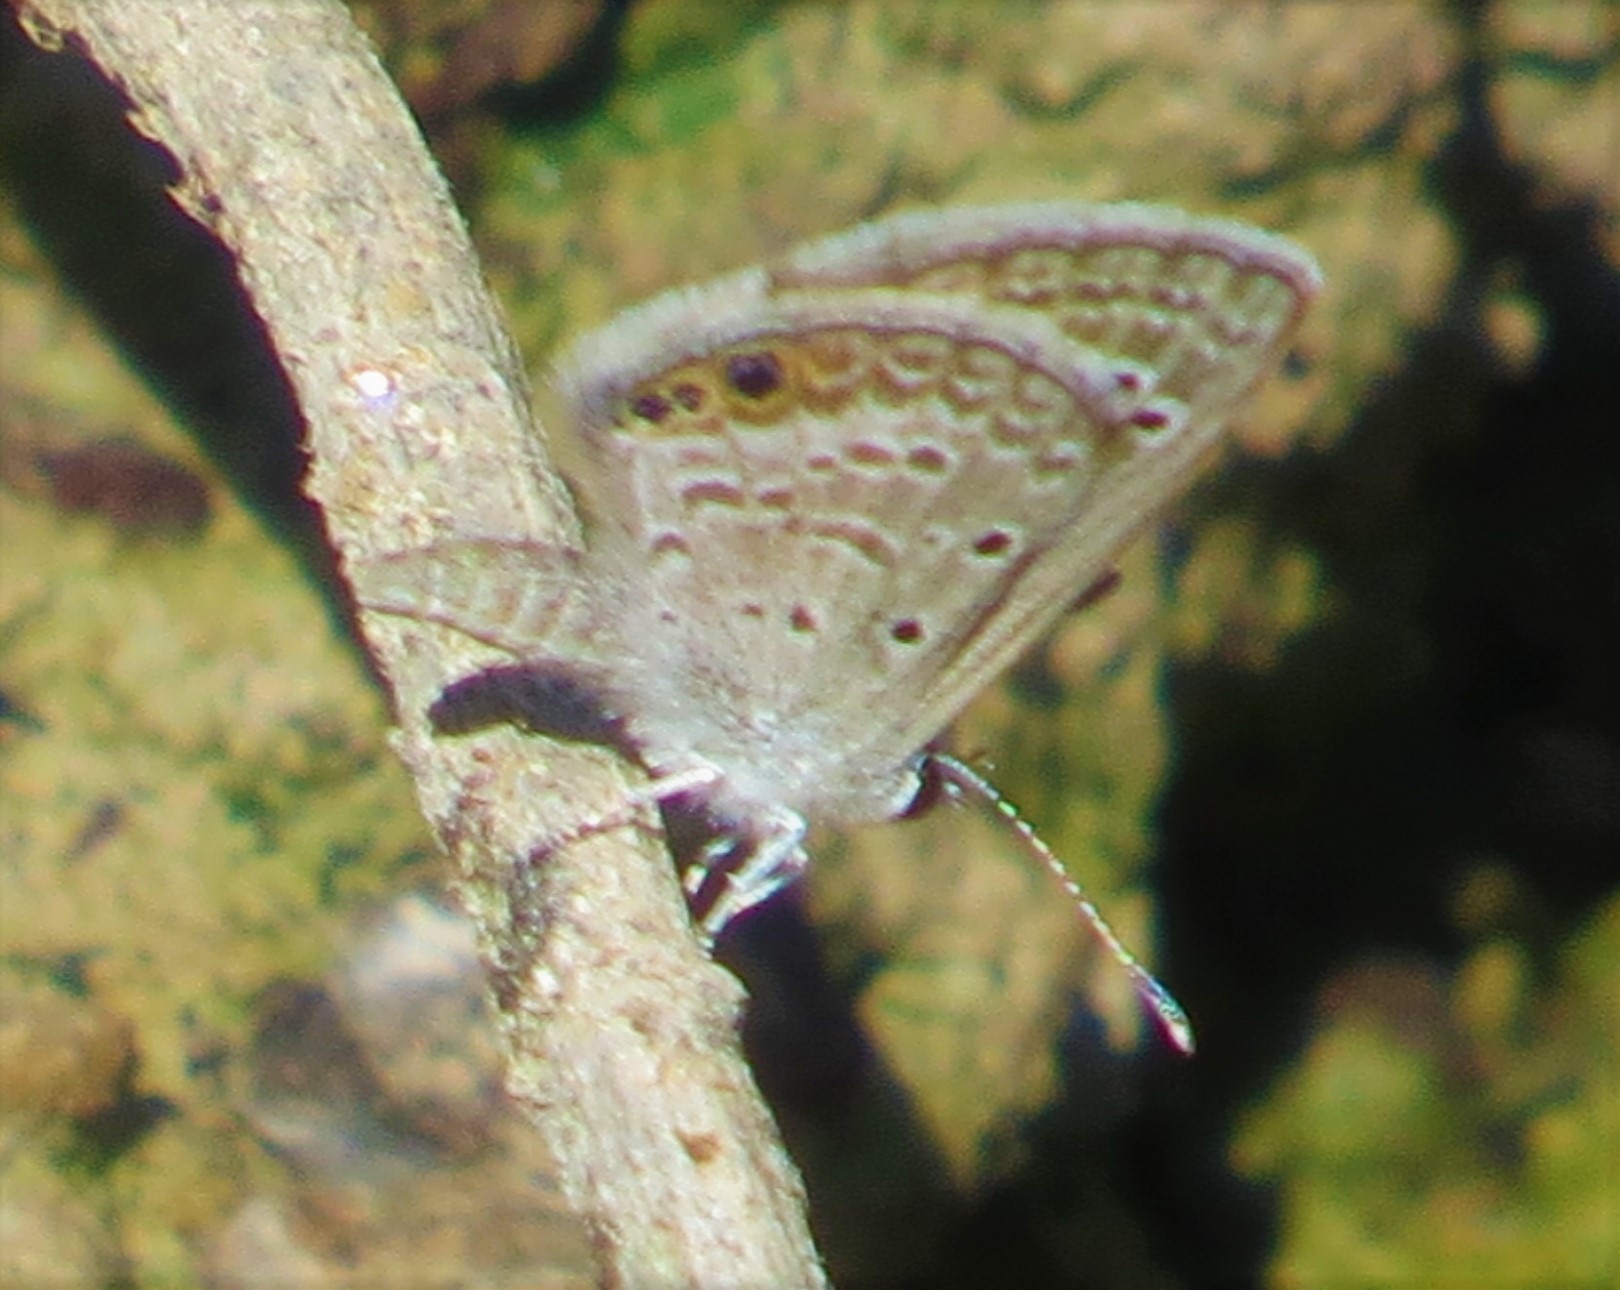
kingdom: Animalia
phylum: Arthropoda
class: Insecta
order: Lepidoptera
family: Lycaenidae
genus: Echinargus
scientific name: Echinargus isola
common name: Reakirt's blue
